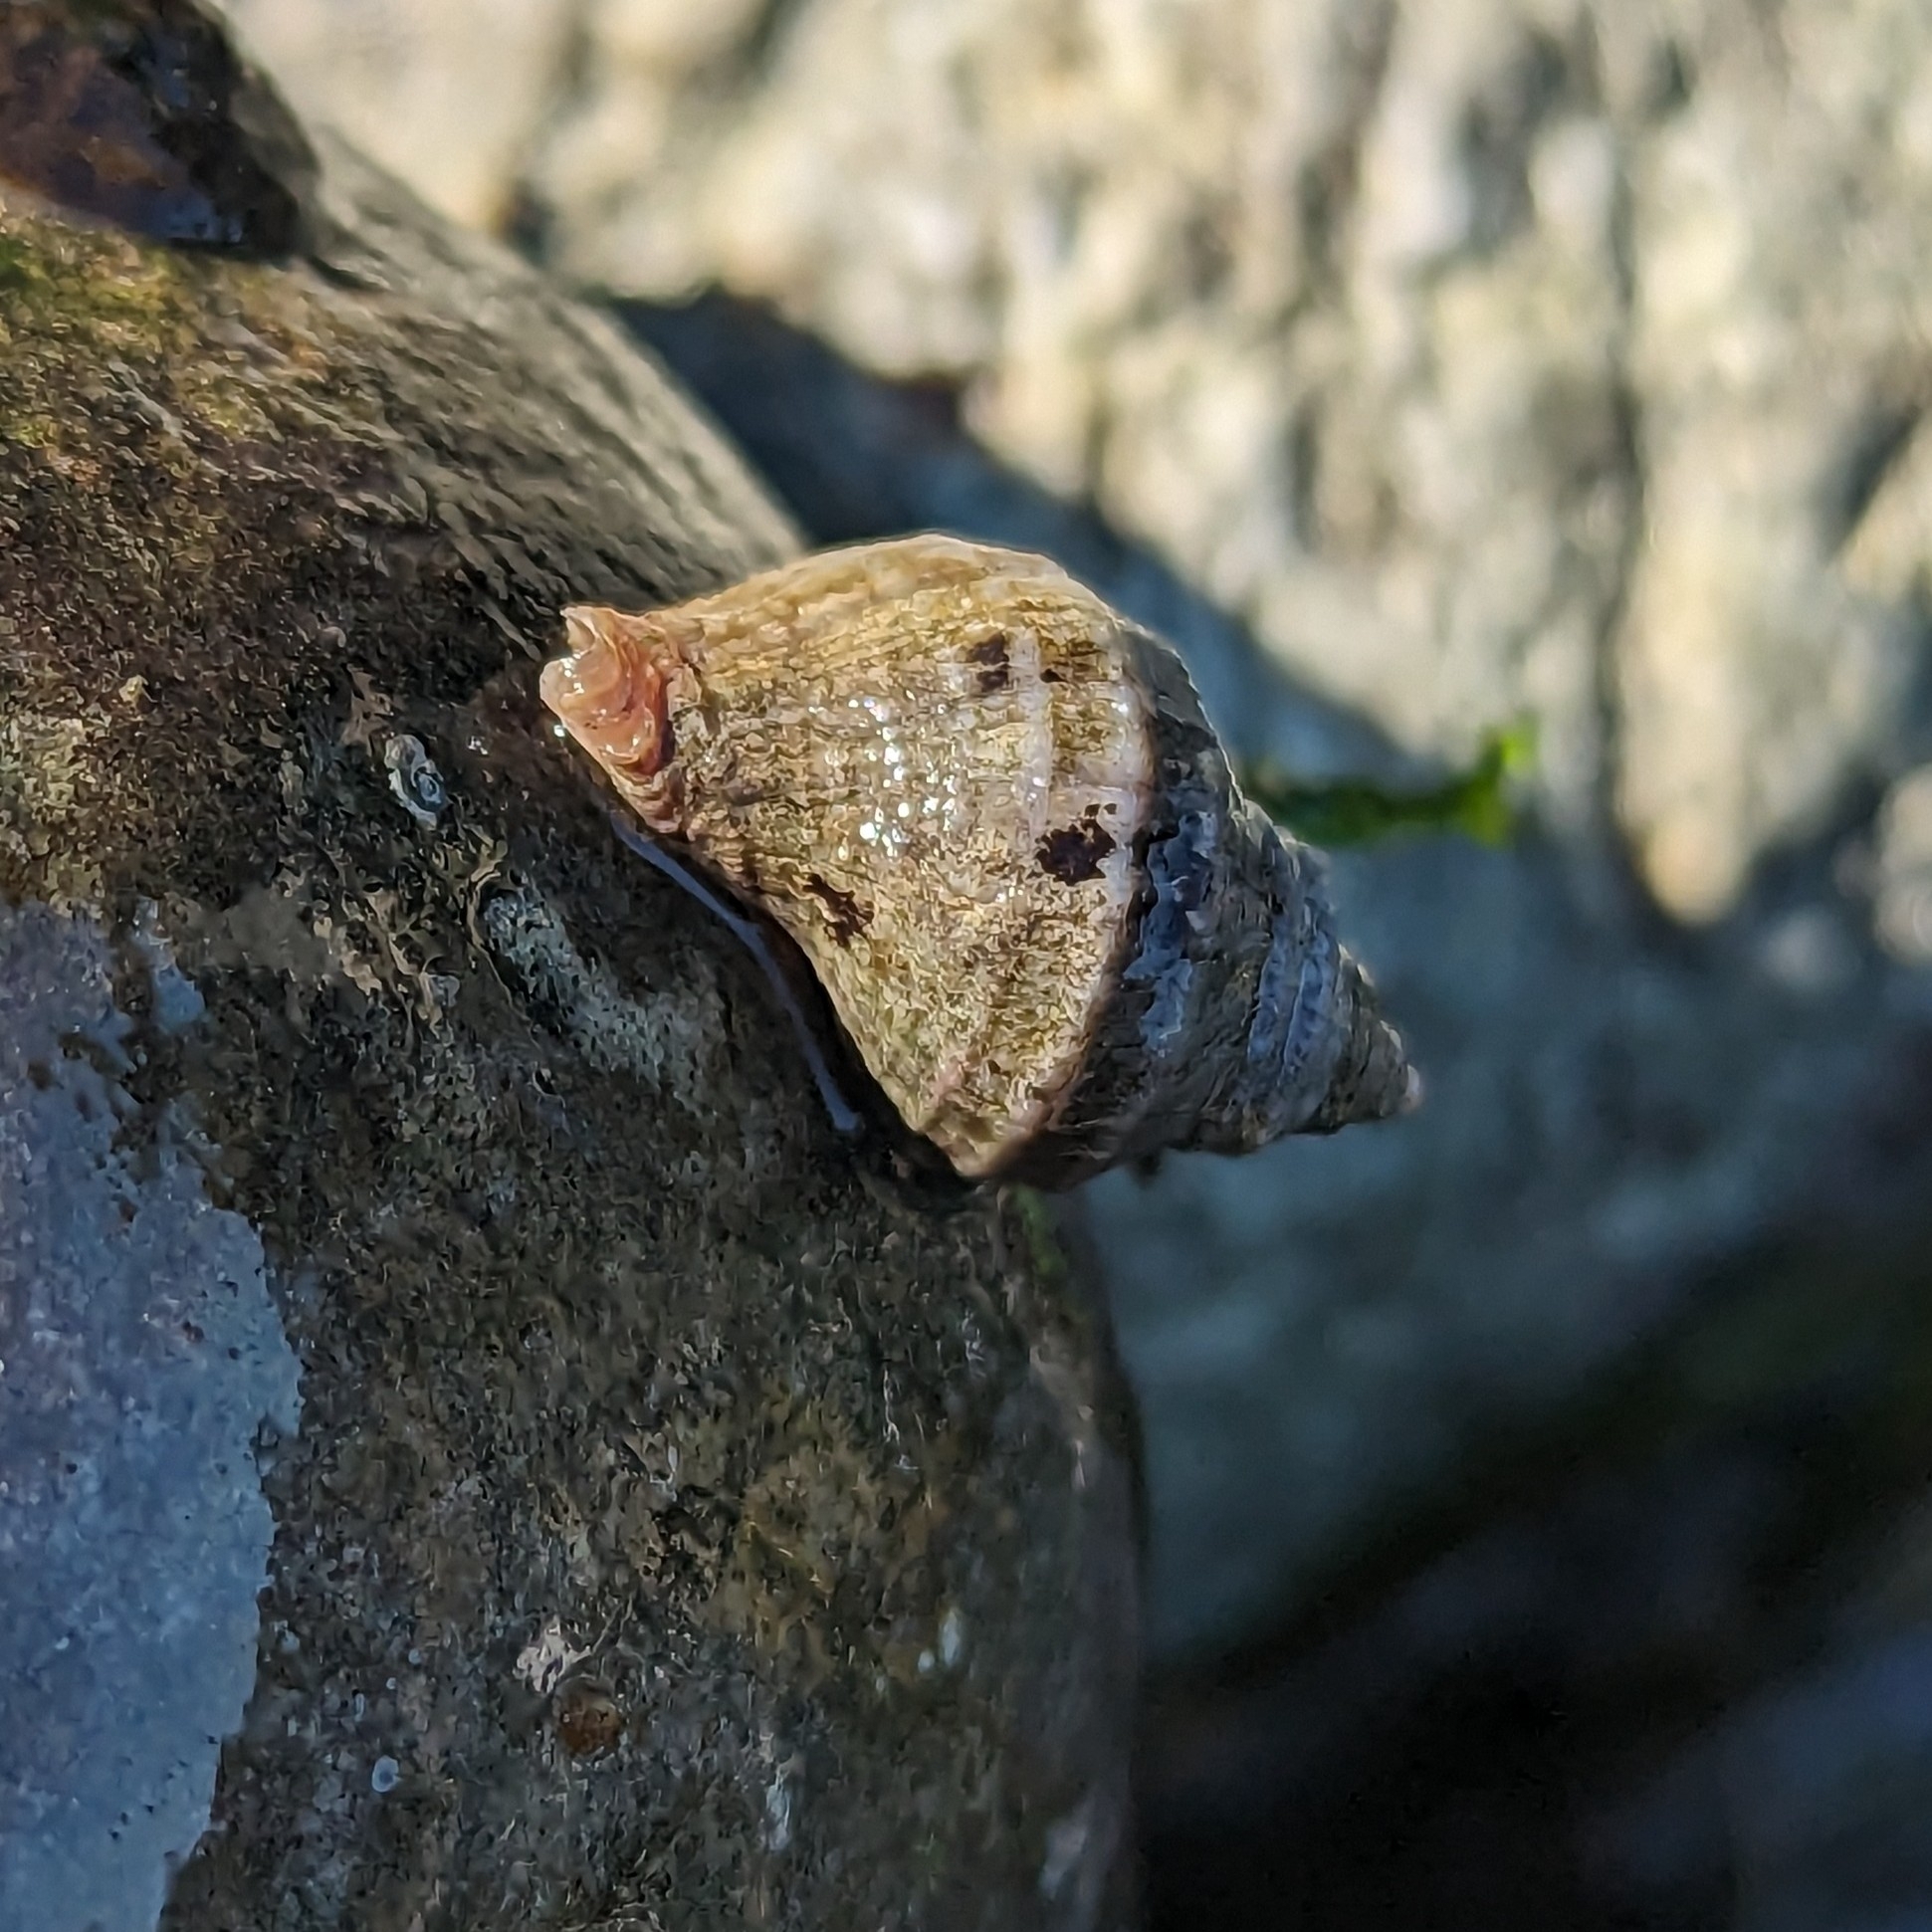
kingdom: Animalia
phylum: Mollusca
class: Gastropoda
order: Neogastropoda
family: Muricidae
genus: Nucella
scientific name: Nucella lamellosa
